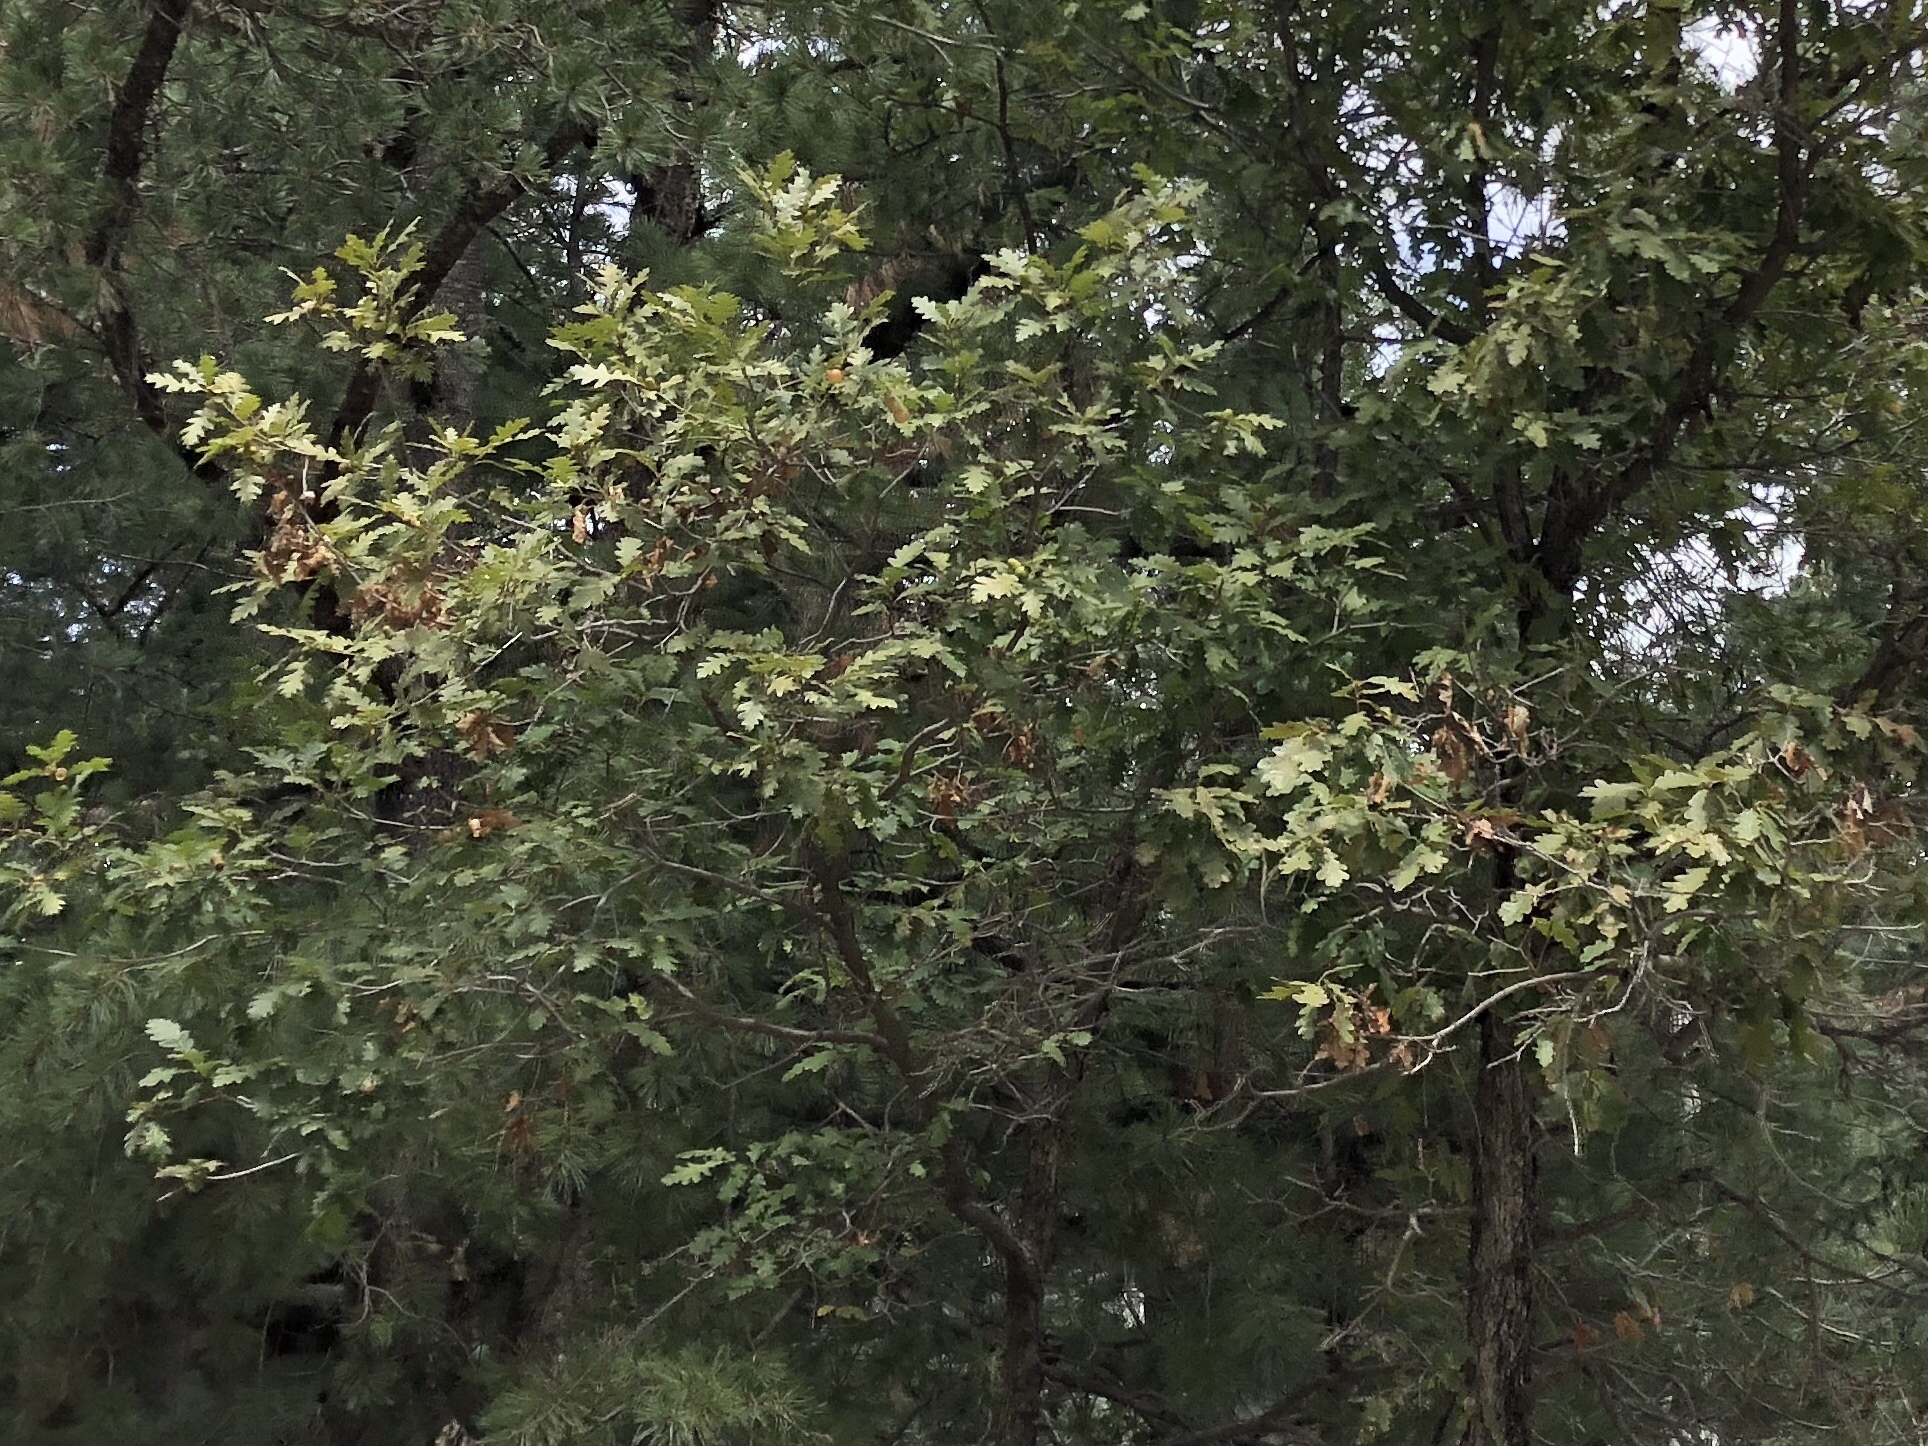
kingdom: Plantae
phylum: Tracheophyta
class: Magnoliopsida
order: Fagales
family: Fagaceae
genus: Quercus
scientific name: Quercus gambelii
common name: Gambel oak
